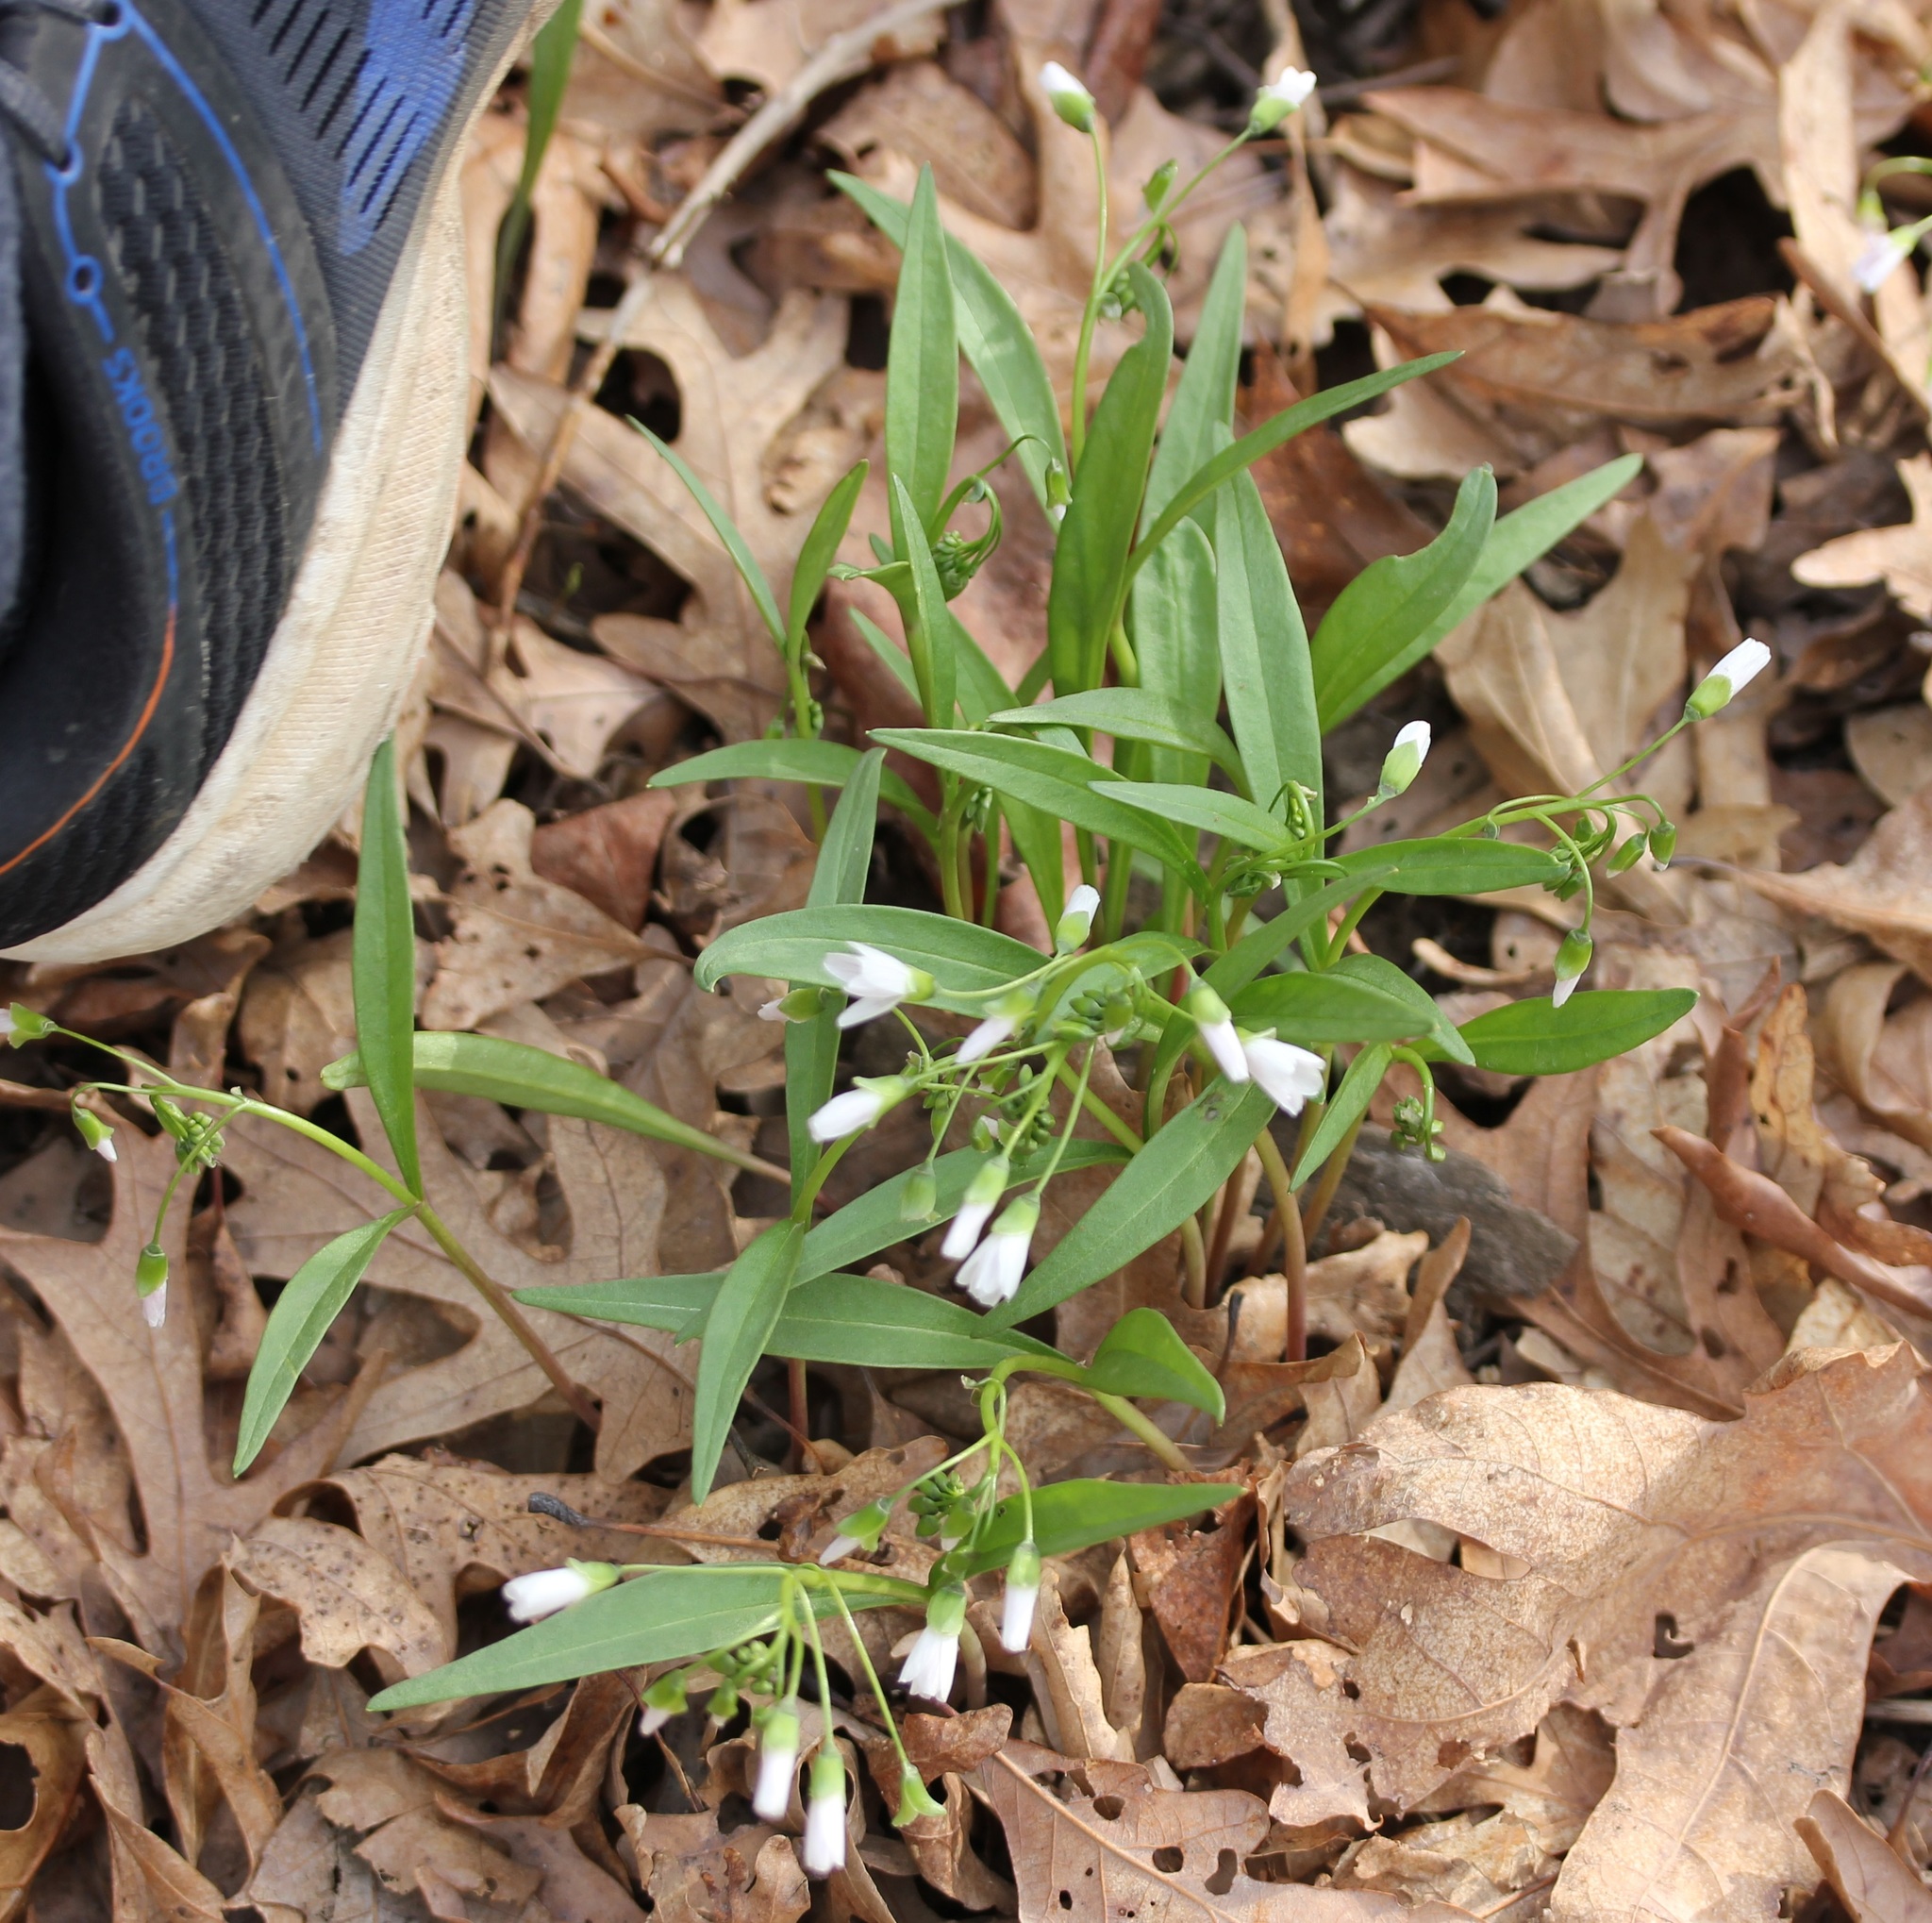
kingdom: Plantae
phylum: Tracheophyta
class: Magnoliopsida
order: Caryophyllales
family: Montiaceae
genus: Claytonia
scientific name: Claytonia virginica
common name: Virginia springbeauty
